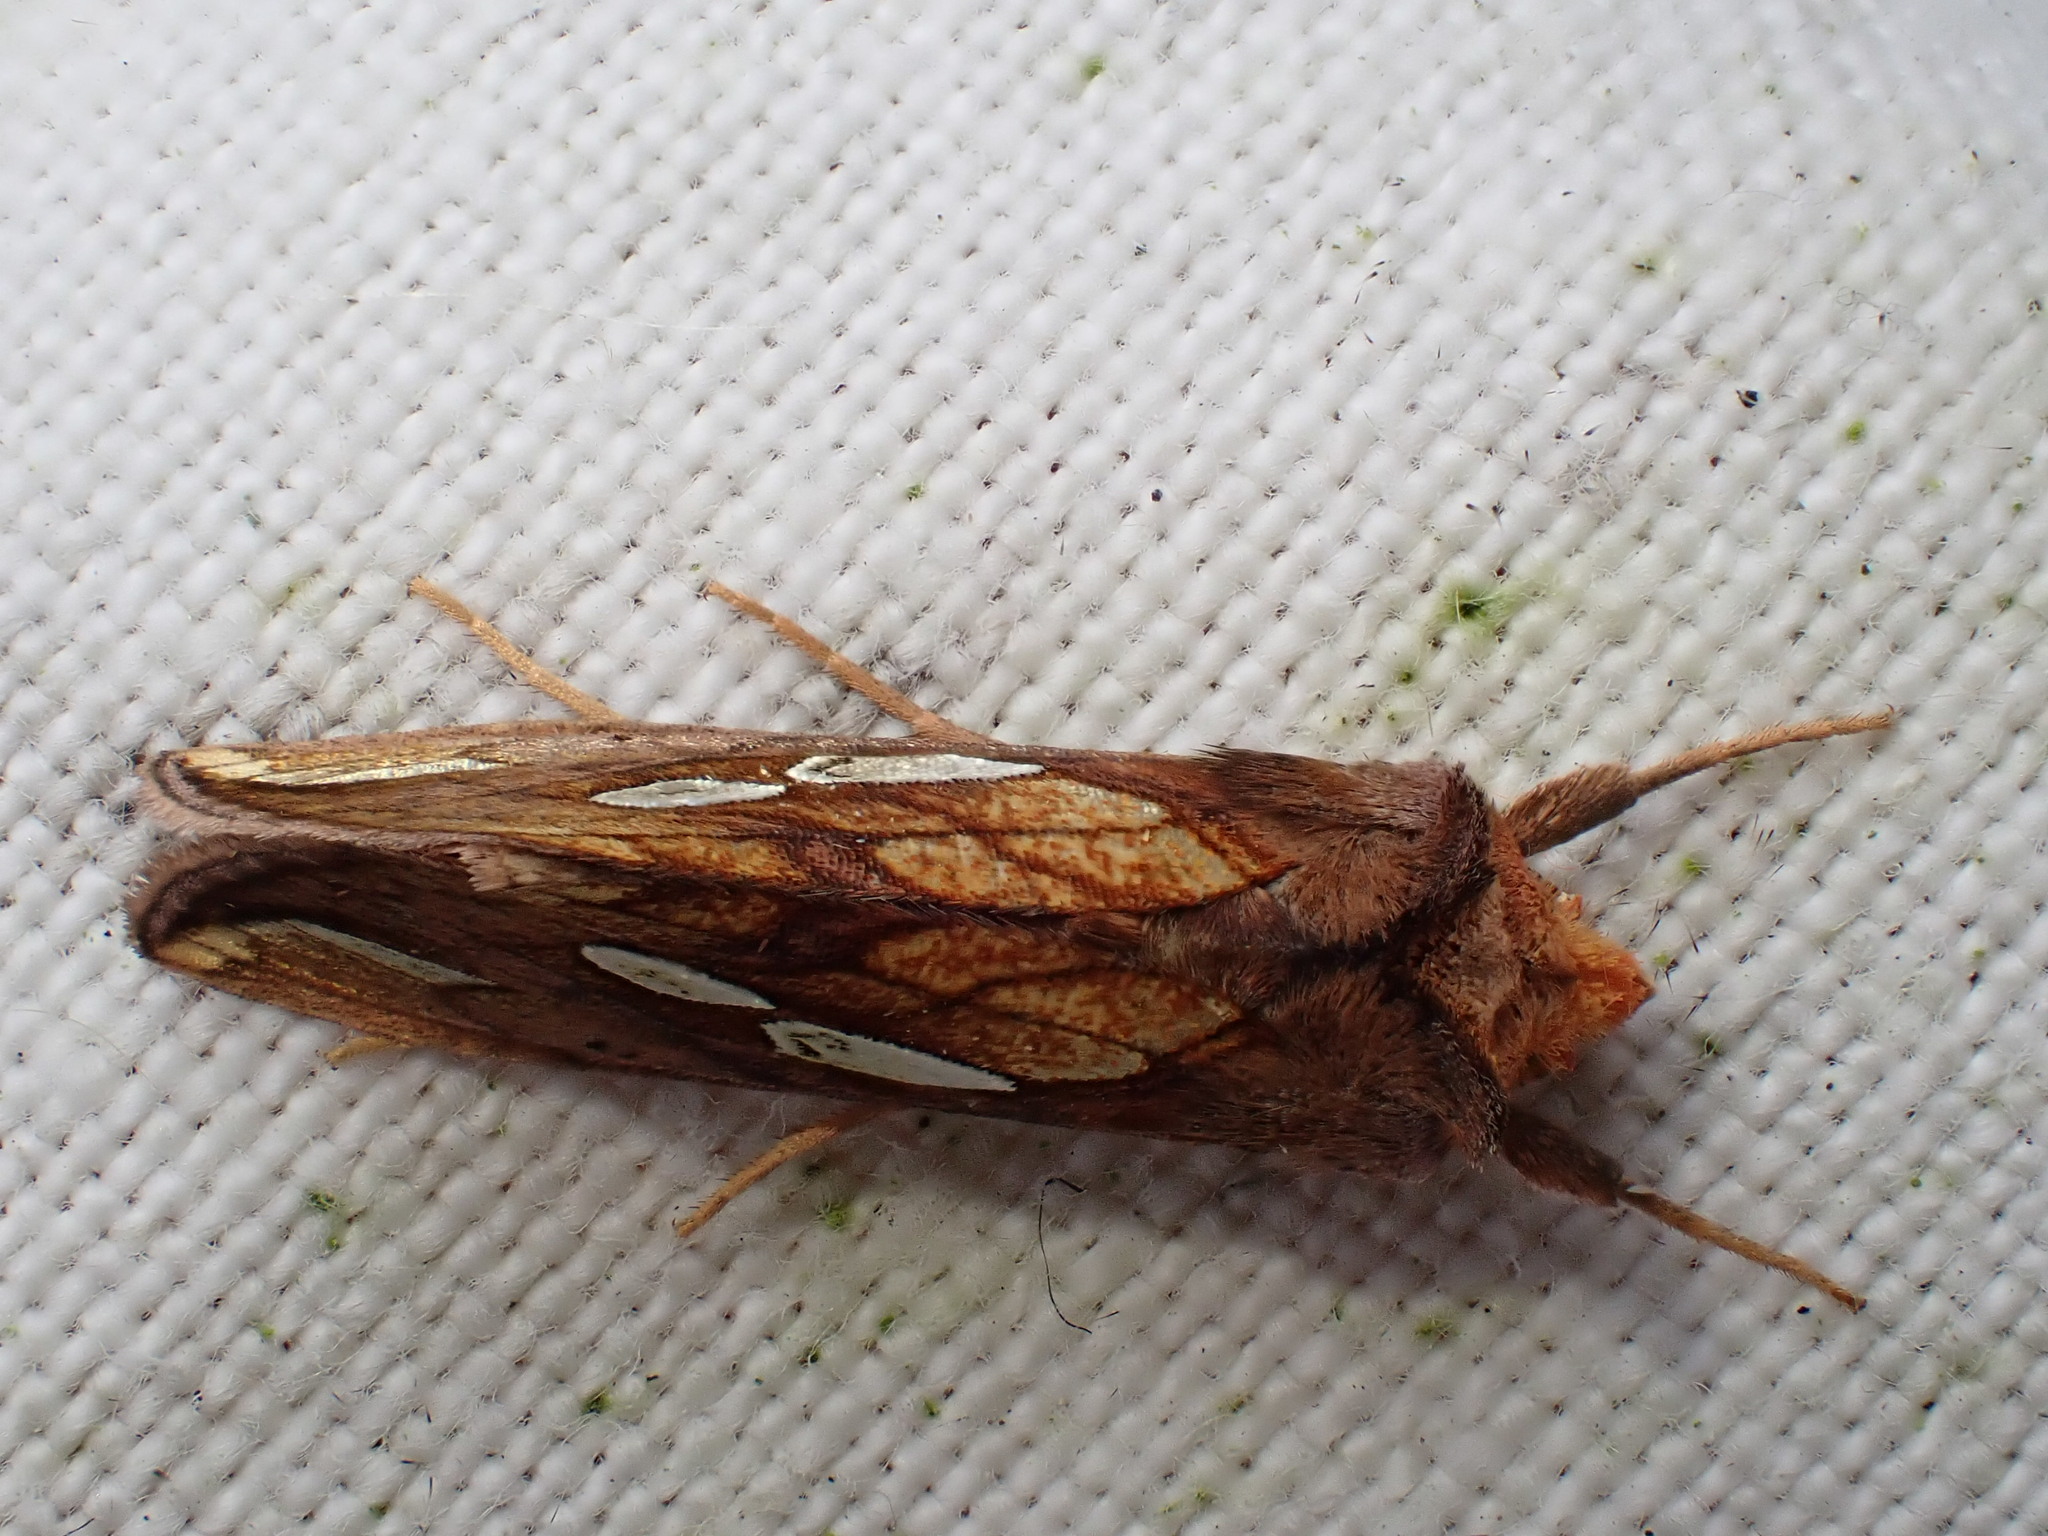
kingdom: Animalia
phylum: Arthropoda
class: Insecta
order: Lepidoptera
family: Noctuidae
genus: Plusia
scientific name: Plusia putnami
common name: Lempke's gold spot
